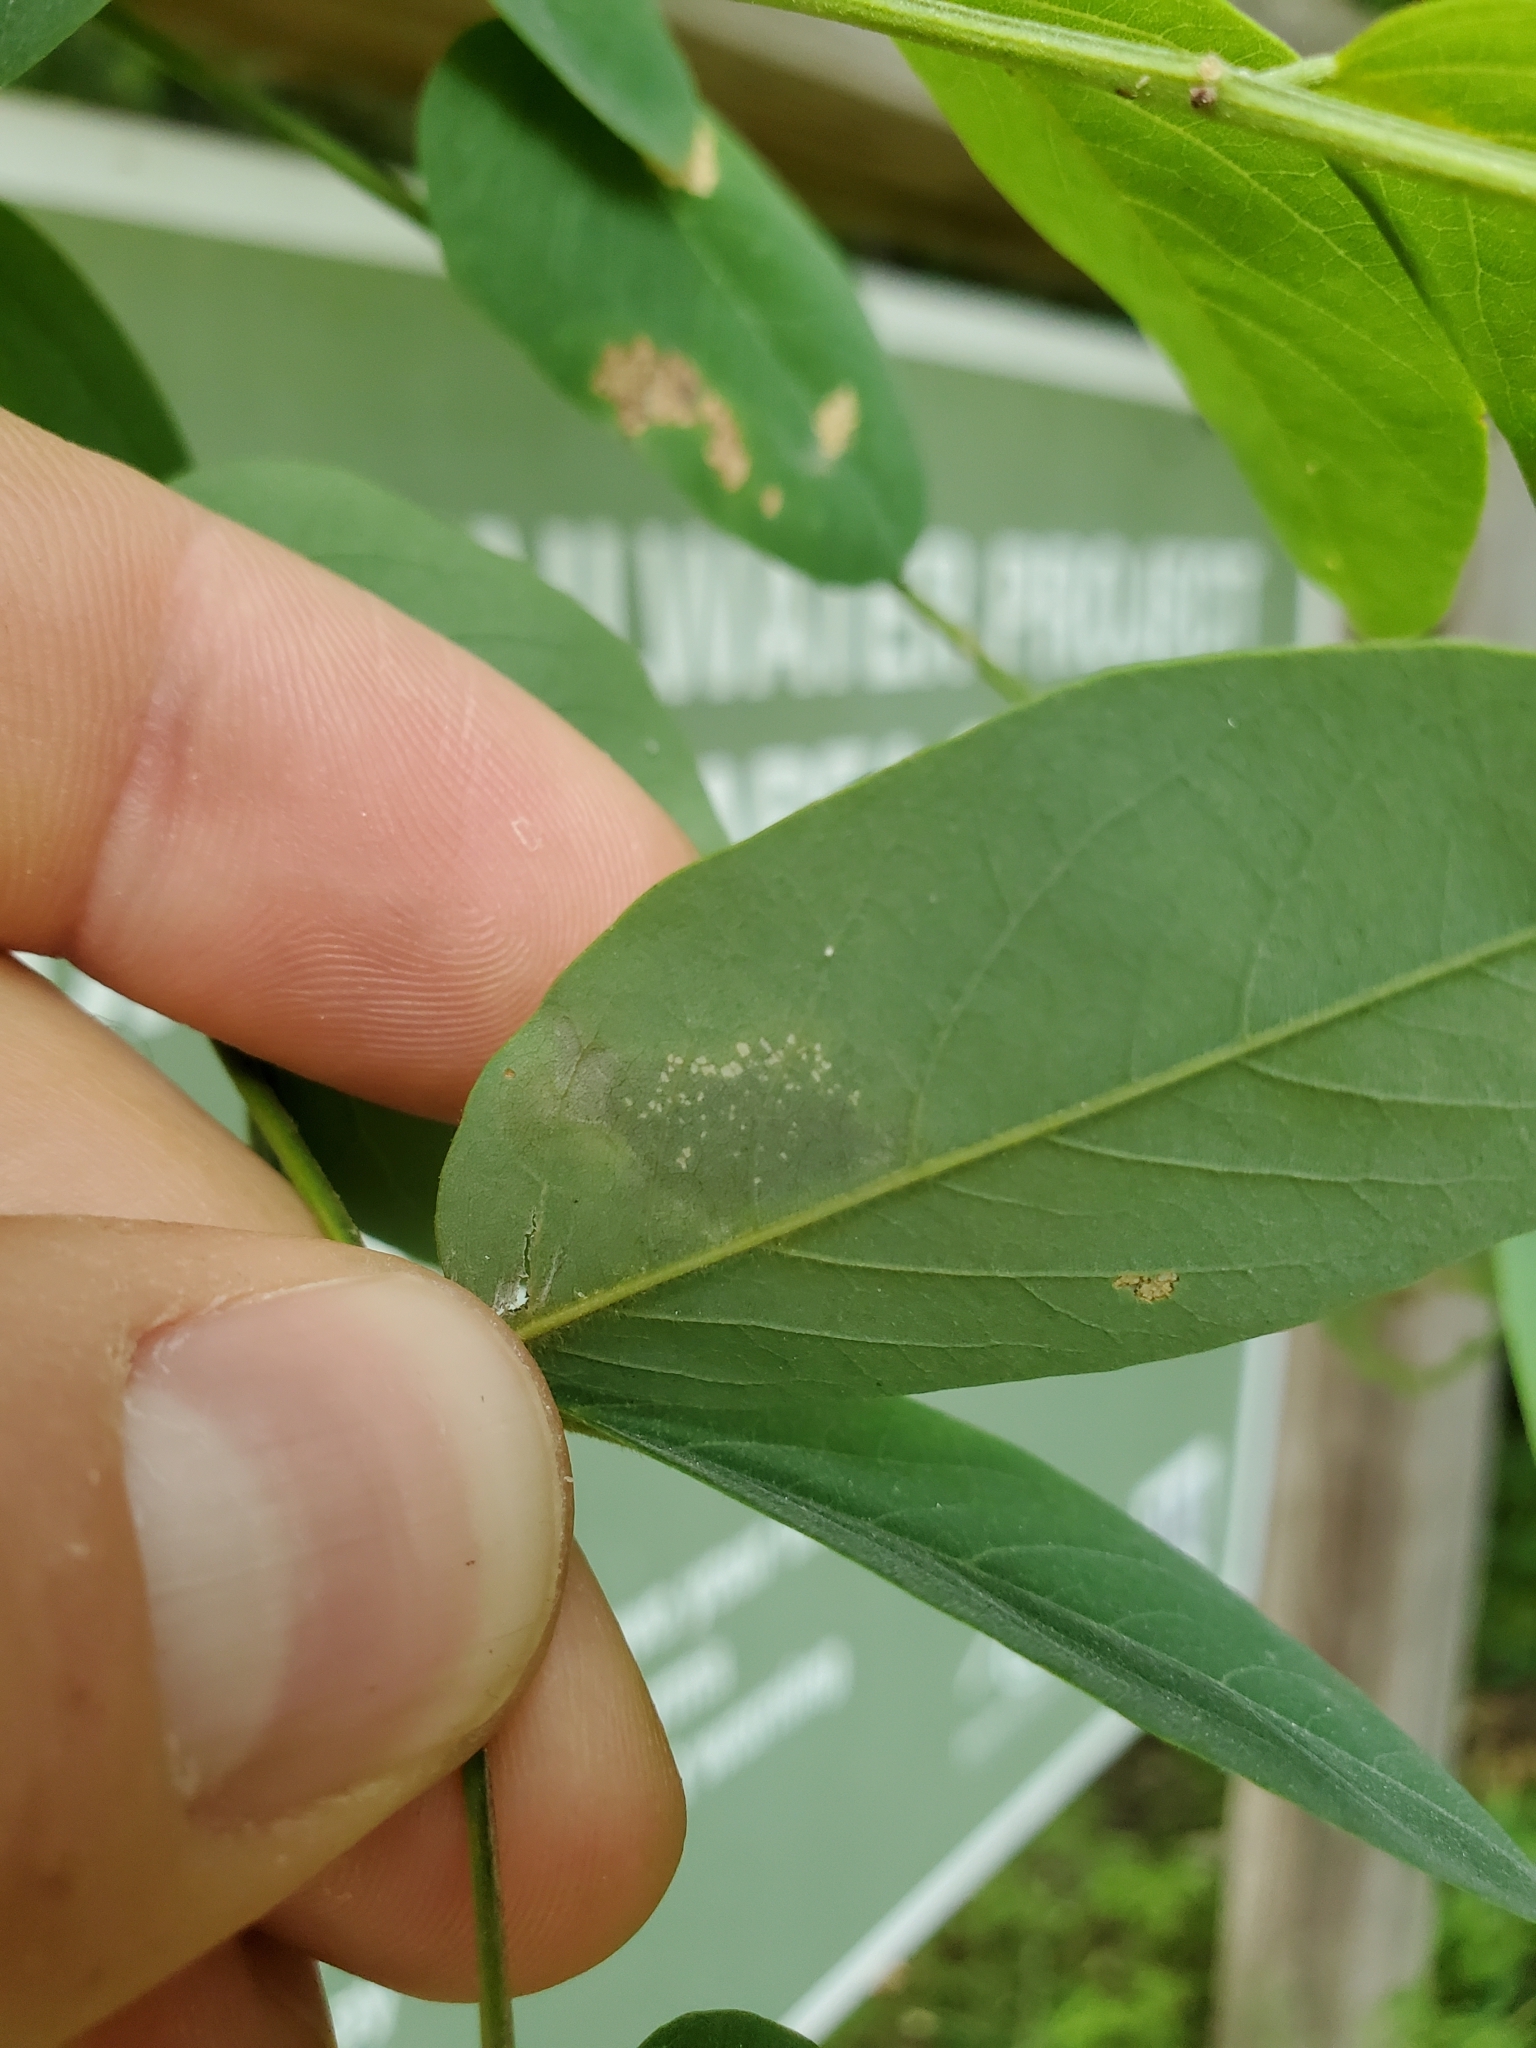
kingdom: Animalia
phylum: Arthropoda
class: Insecta
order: Lepidoptera
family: Gracillariidae
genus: Chrysaster
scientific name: Chrysaster ostensackenella
